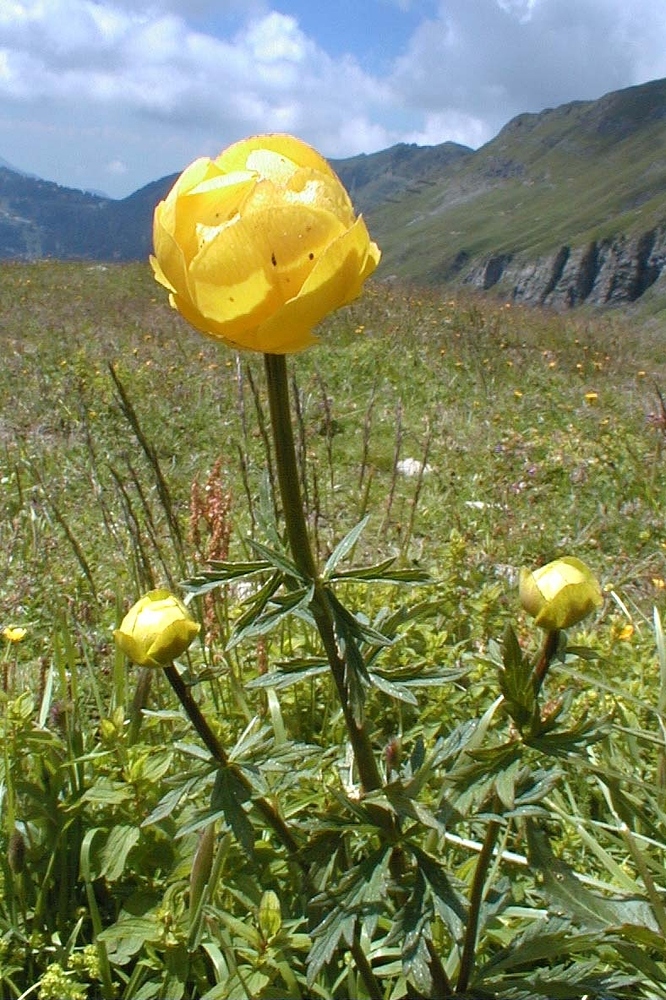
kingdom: Plantae
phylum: Tracheophyta
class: Magnoliopsida
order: Ranunculales
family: Ranunculaceae
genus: Trollius
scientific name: Trollius europaeus
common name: European globeflower
